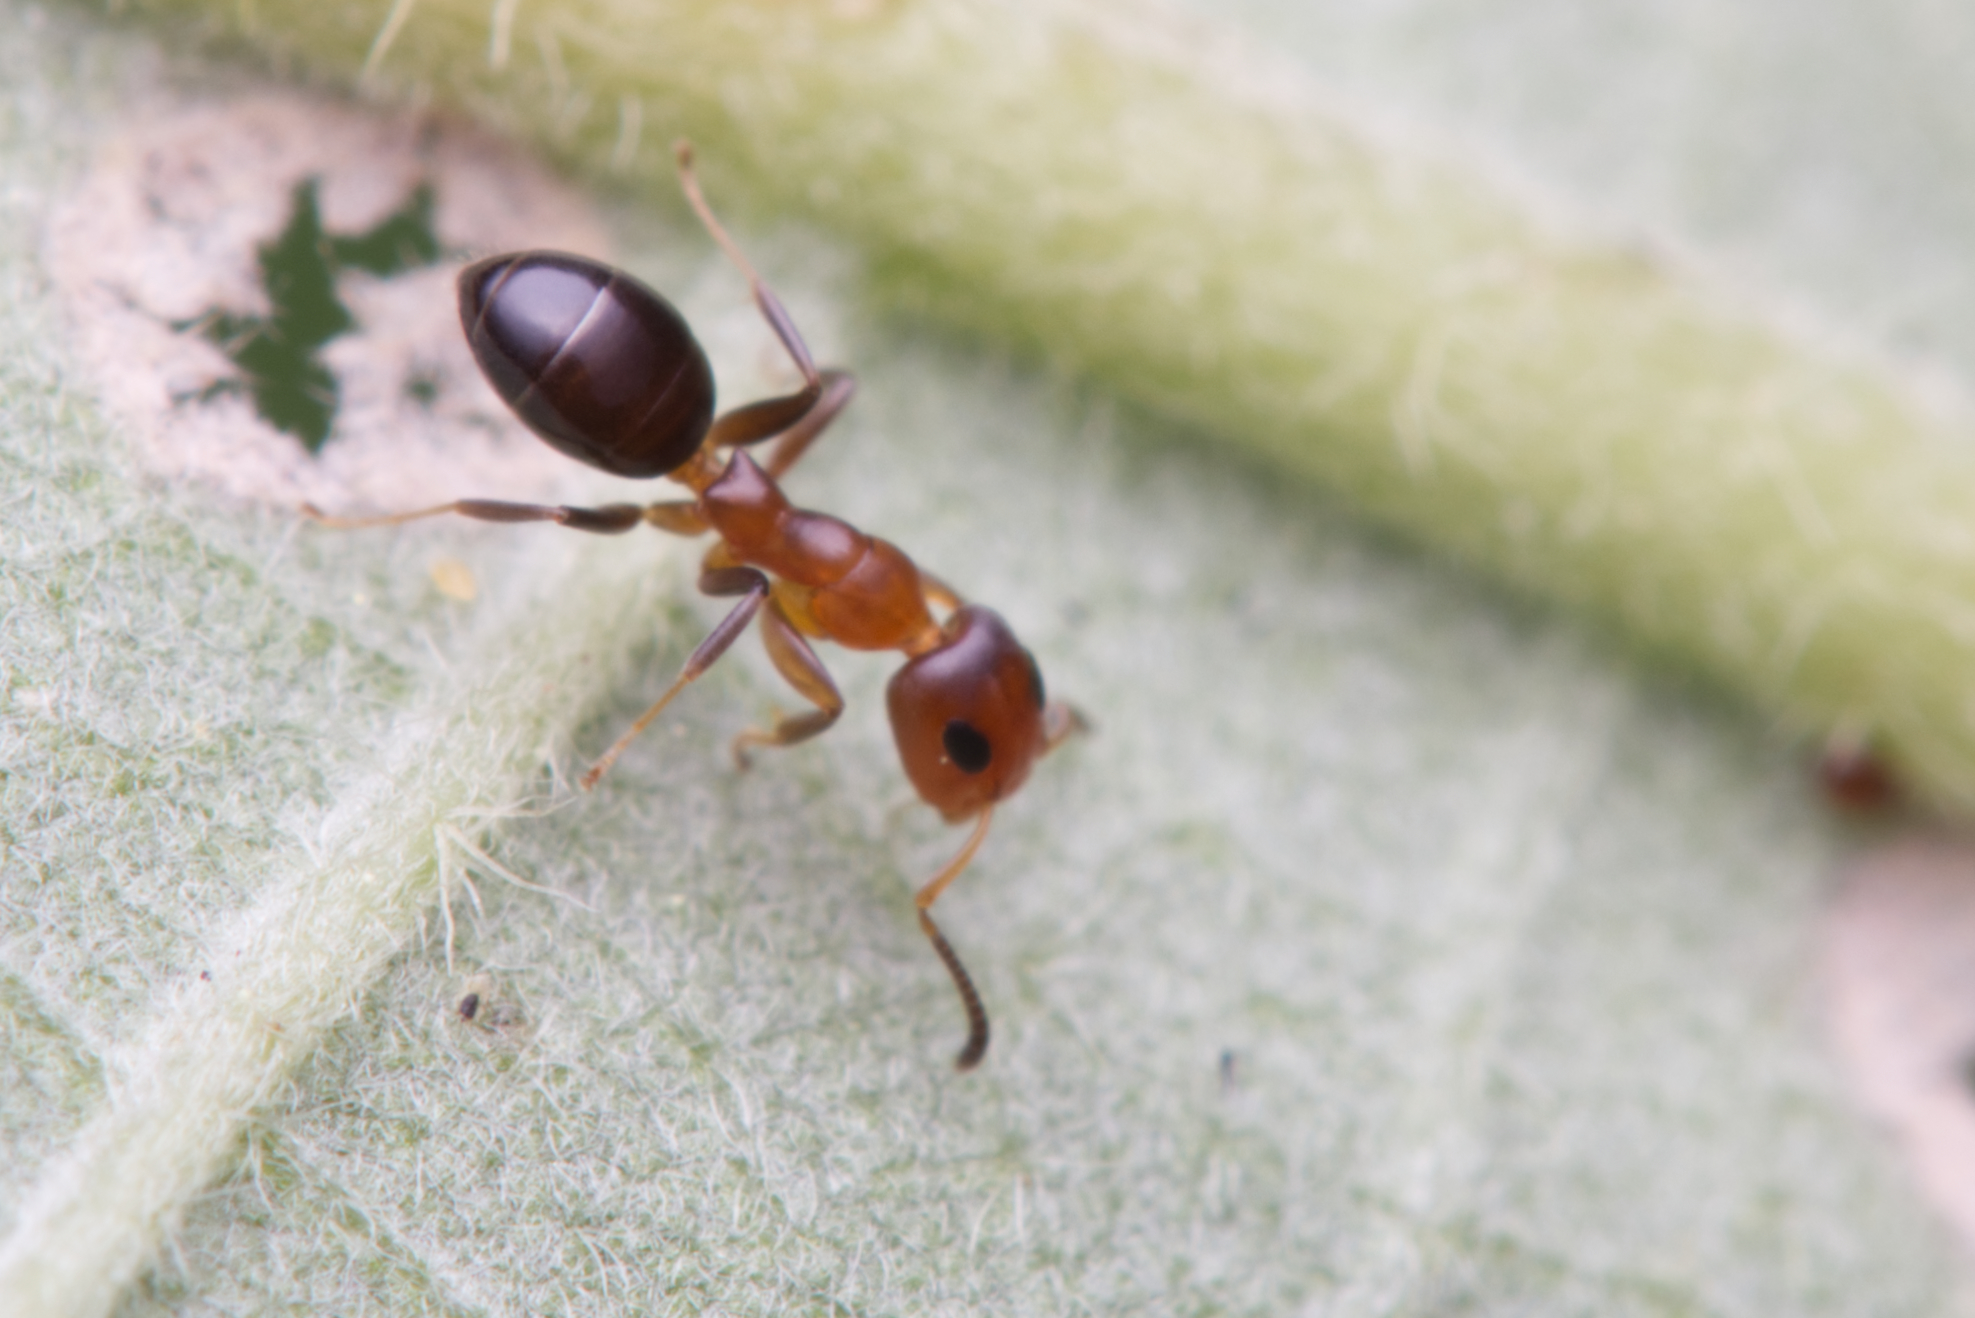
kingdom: Animalia
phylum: Arthropoda
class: Insecta
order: Hymenoptera
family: Formicidae
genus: Turneria
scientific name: Turneria bidentata
